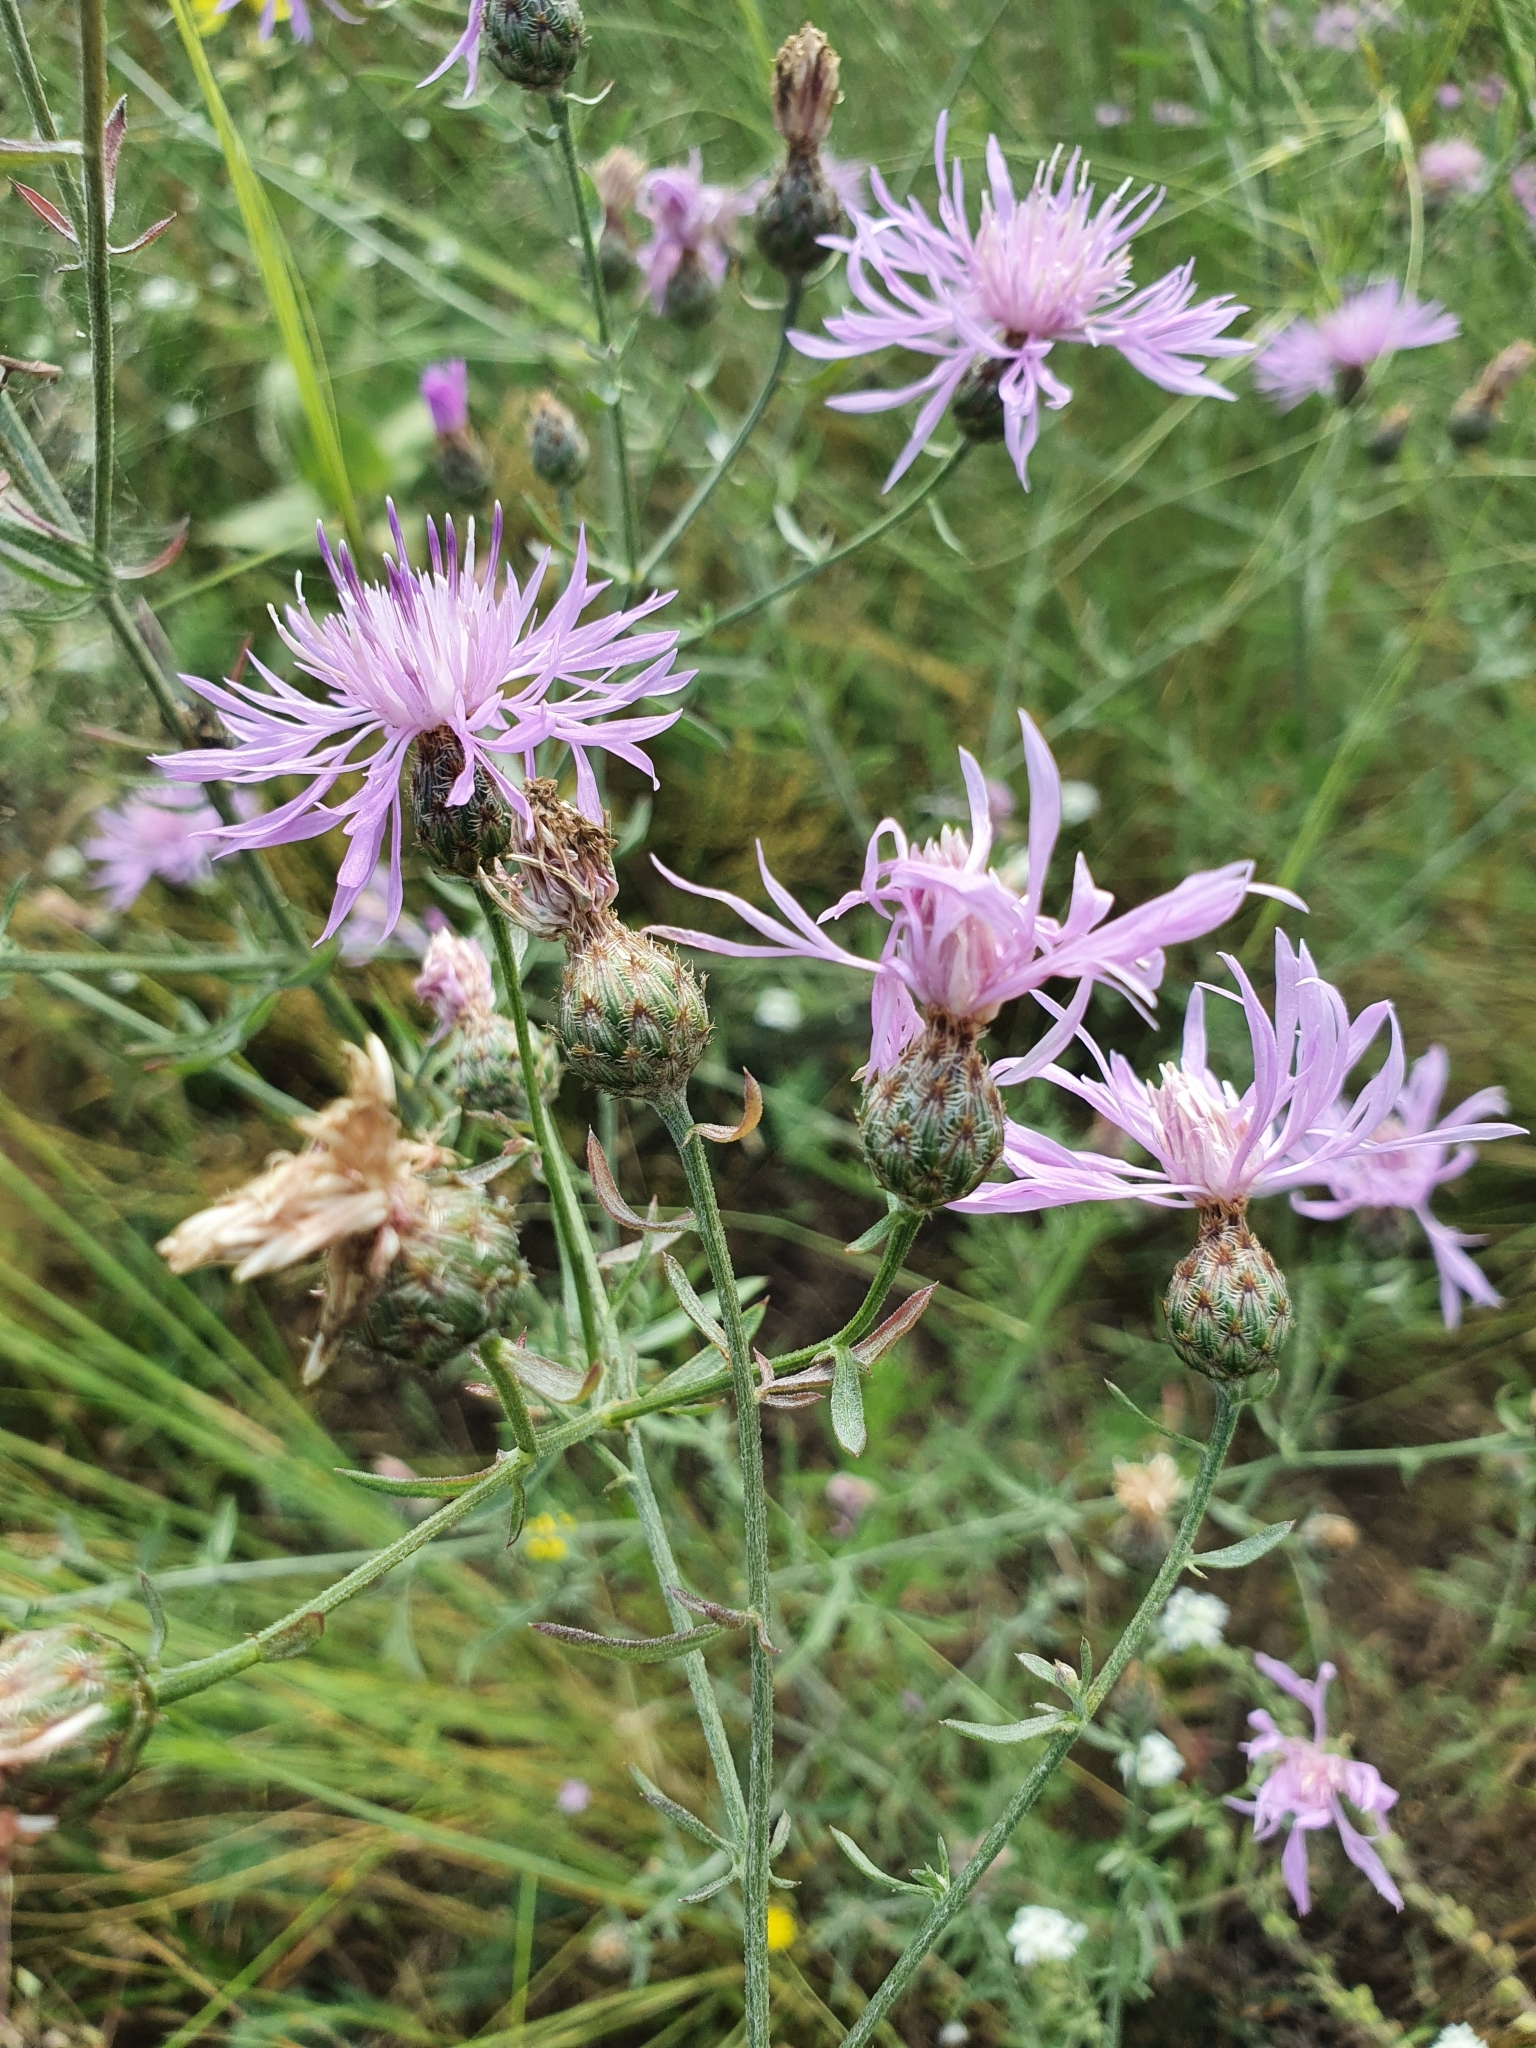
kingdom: Plantae
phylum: Tracheophyta
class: Magnoliopsida
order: Asterales
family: Asteraceae
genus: Centaurea
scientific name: Centaurea stoebe
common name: Spotted knapweed
